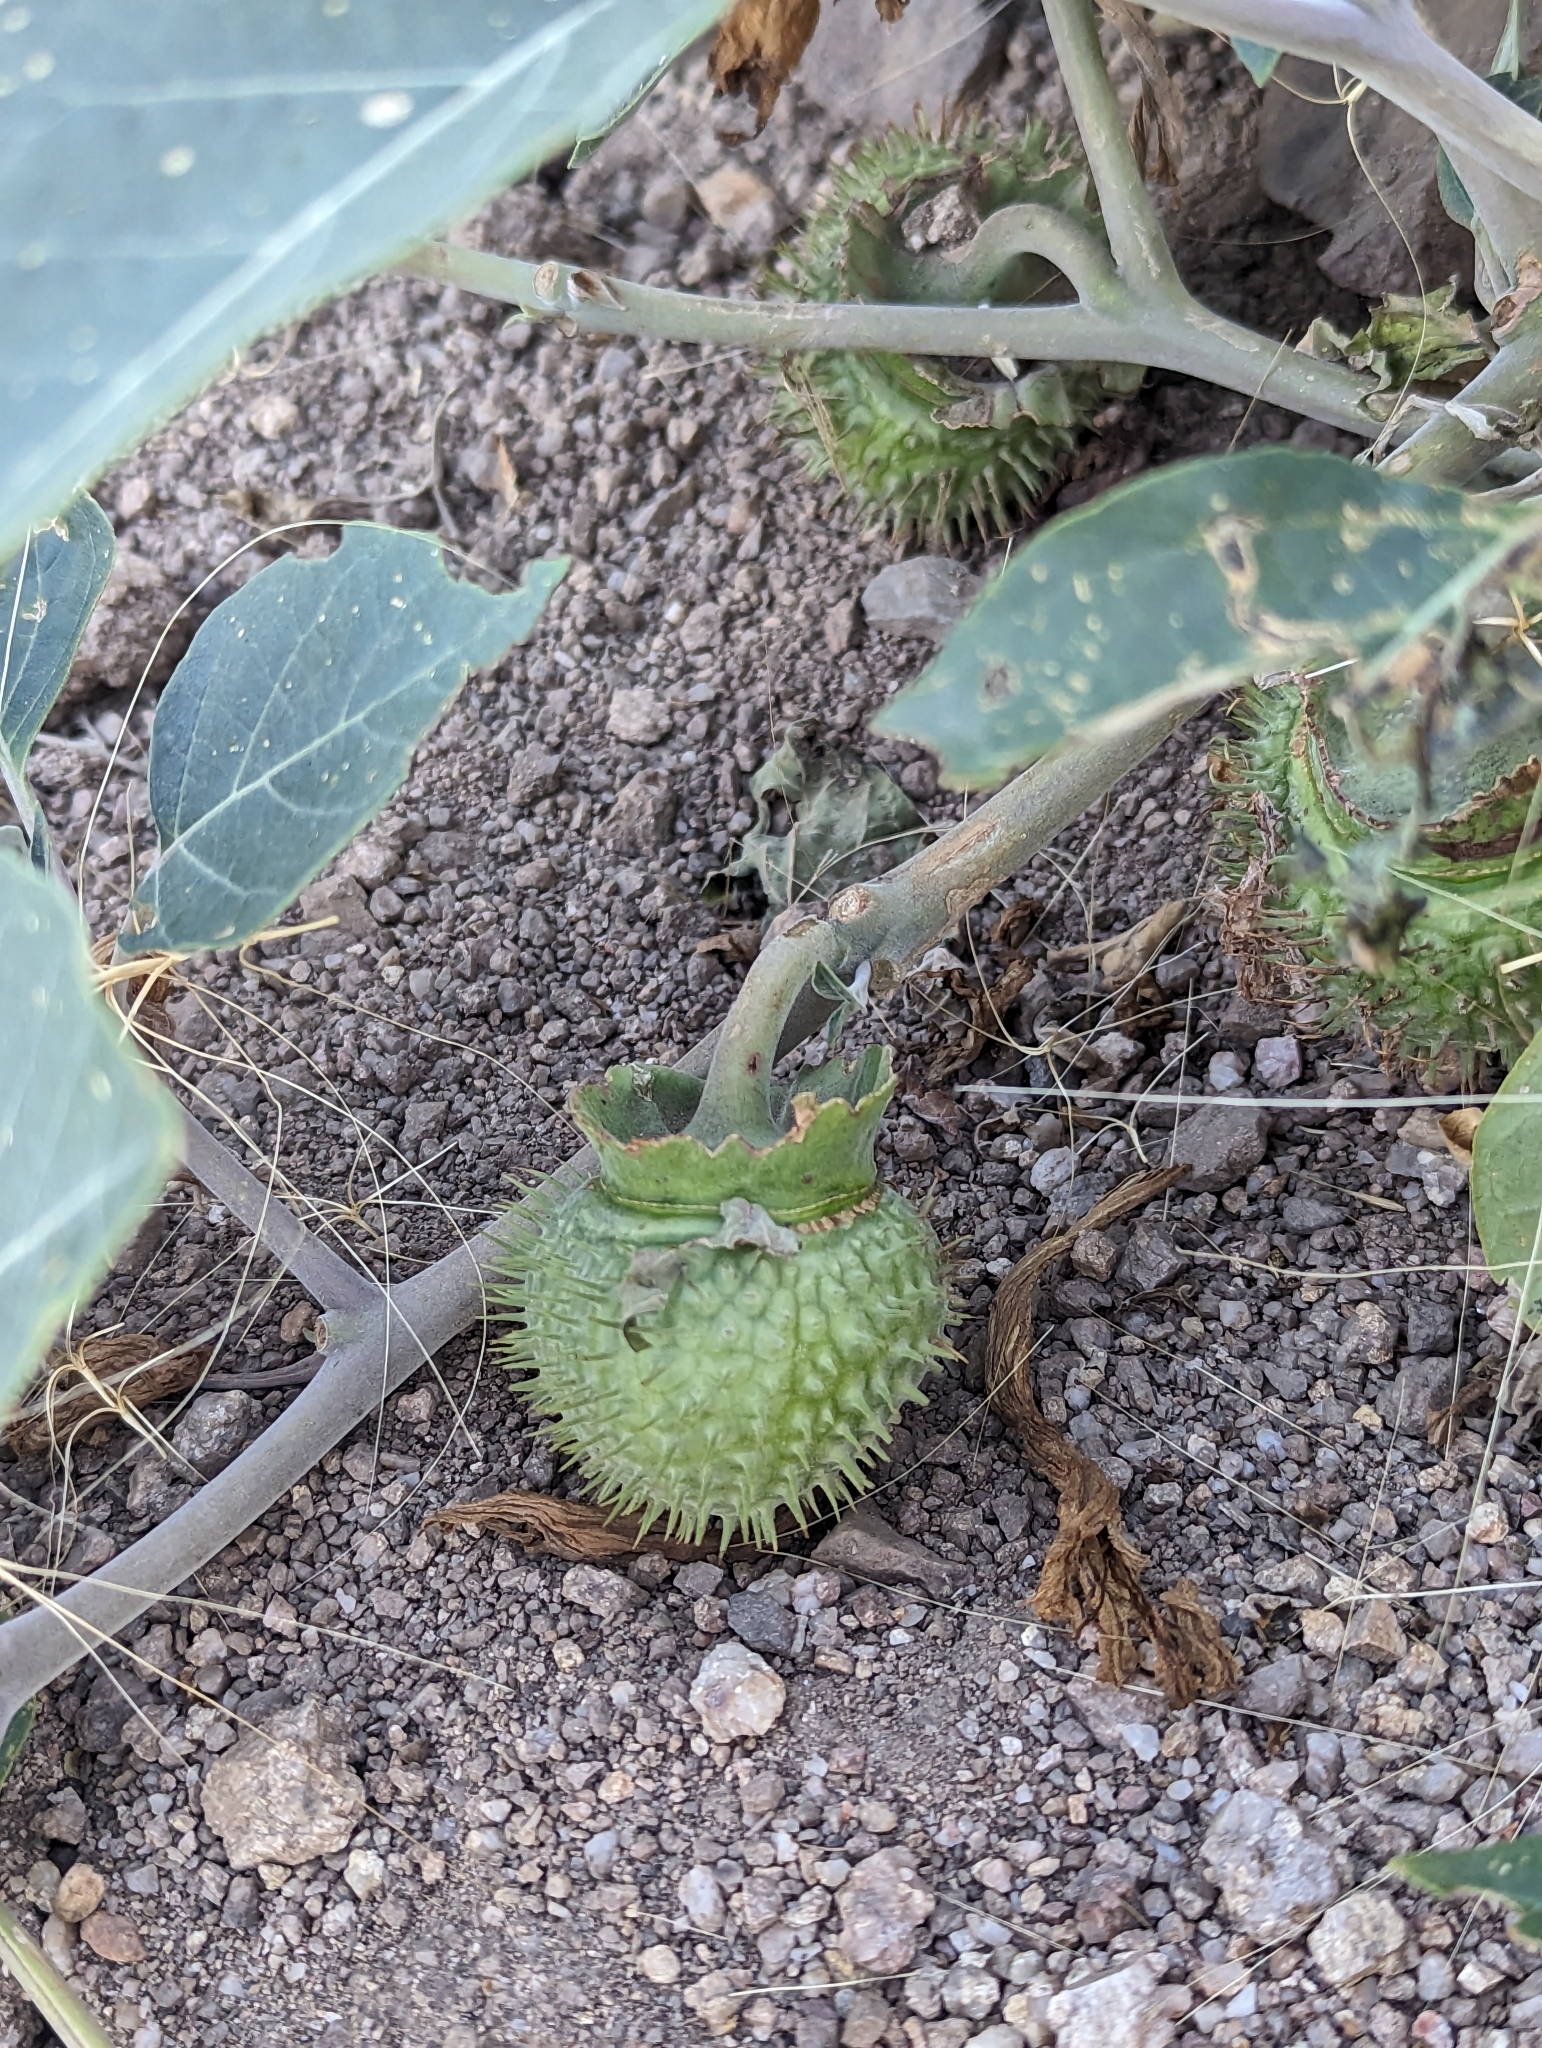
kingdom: Plantae
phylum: Tracheophyta
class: Magnoliopsida
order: Solanales
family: Solanaceae
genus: Datura
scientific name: Datura wrightii
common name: Sacred thorn-apple
